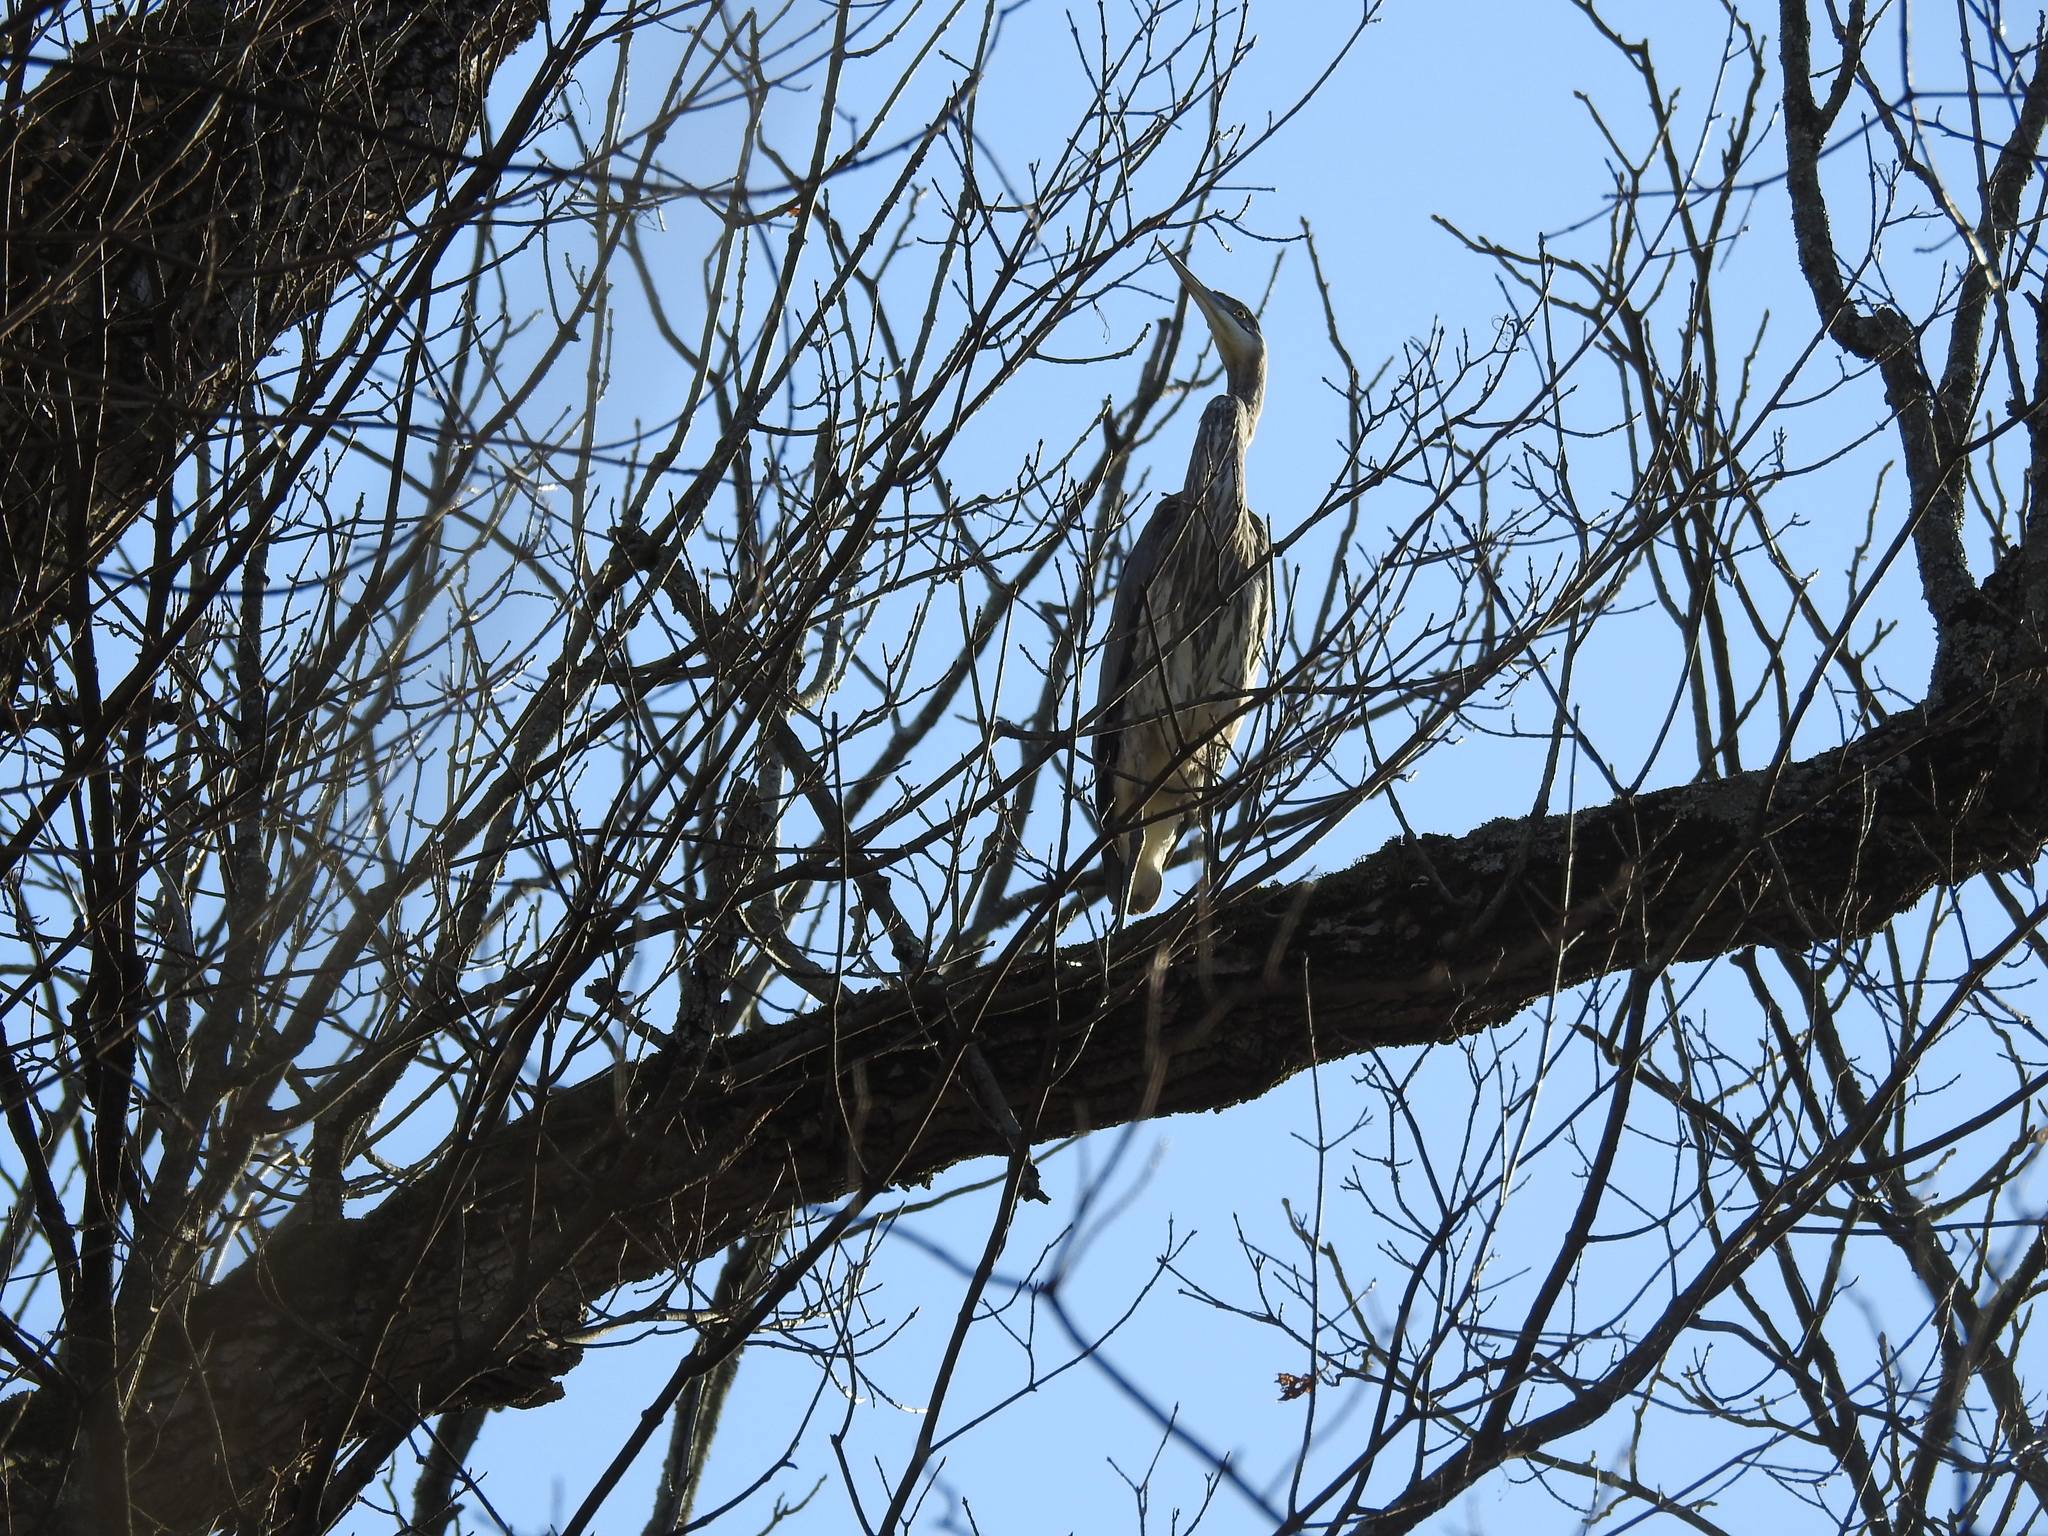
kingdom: Animalia
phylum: Chordata
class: Aves
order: Pelecaniformes
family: Ardeidae
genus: Ardea
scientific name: Ardea herodias
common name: Great blue heron
